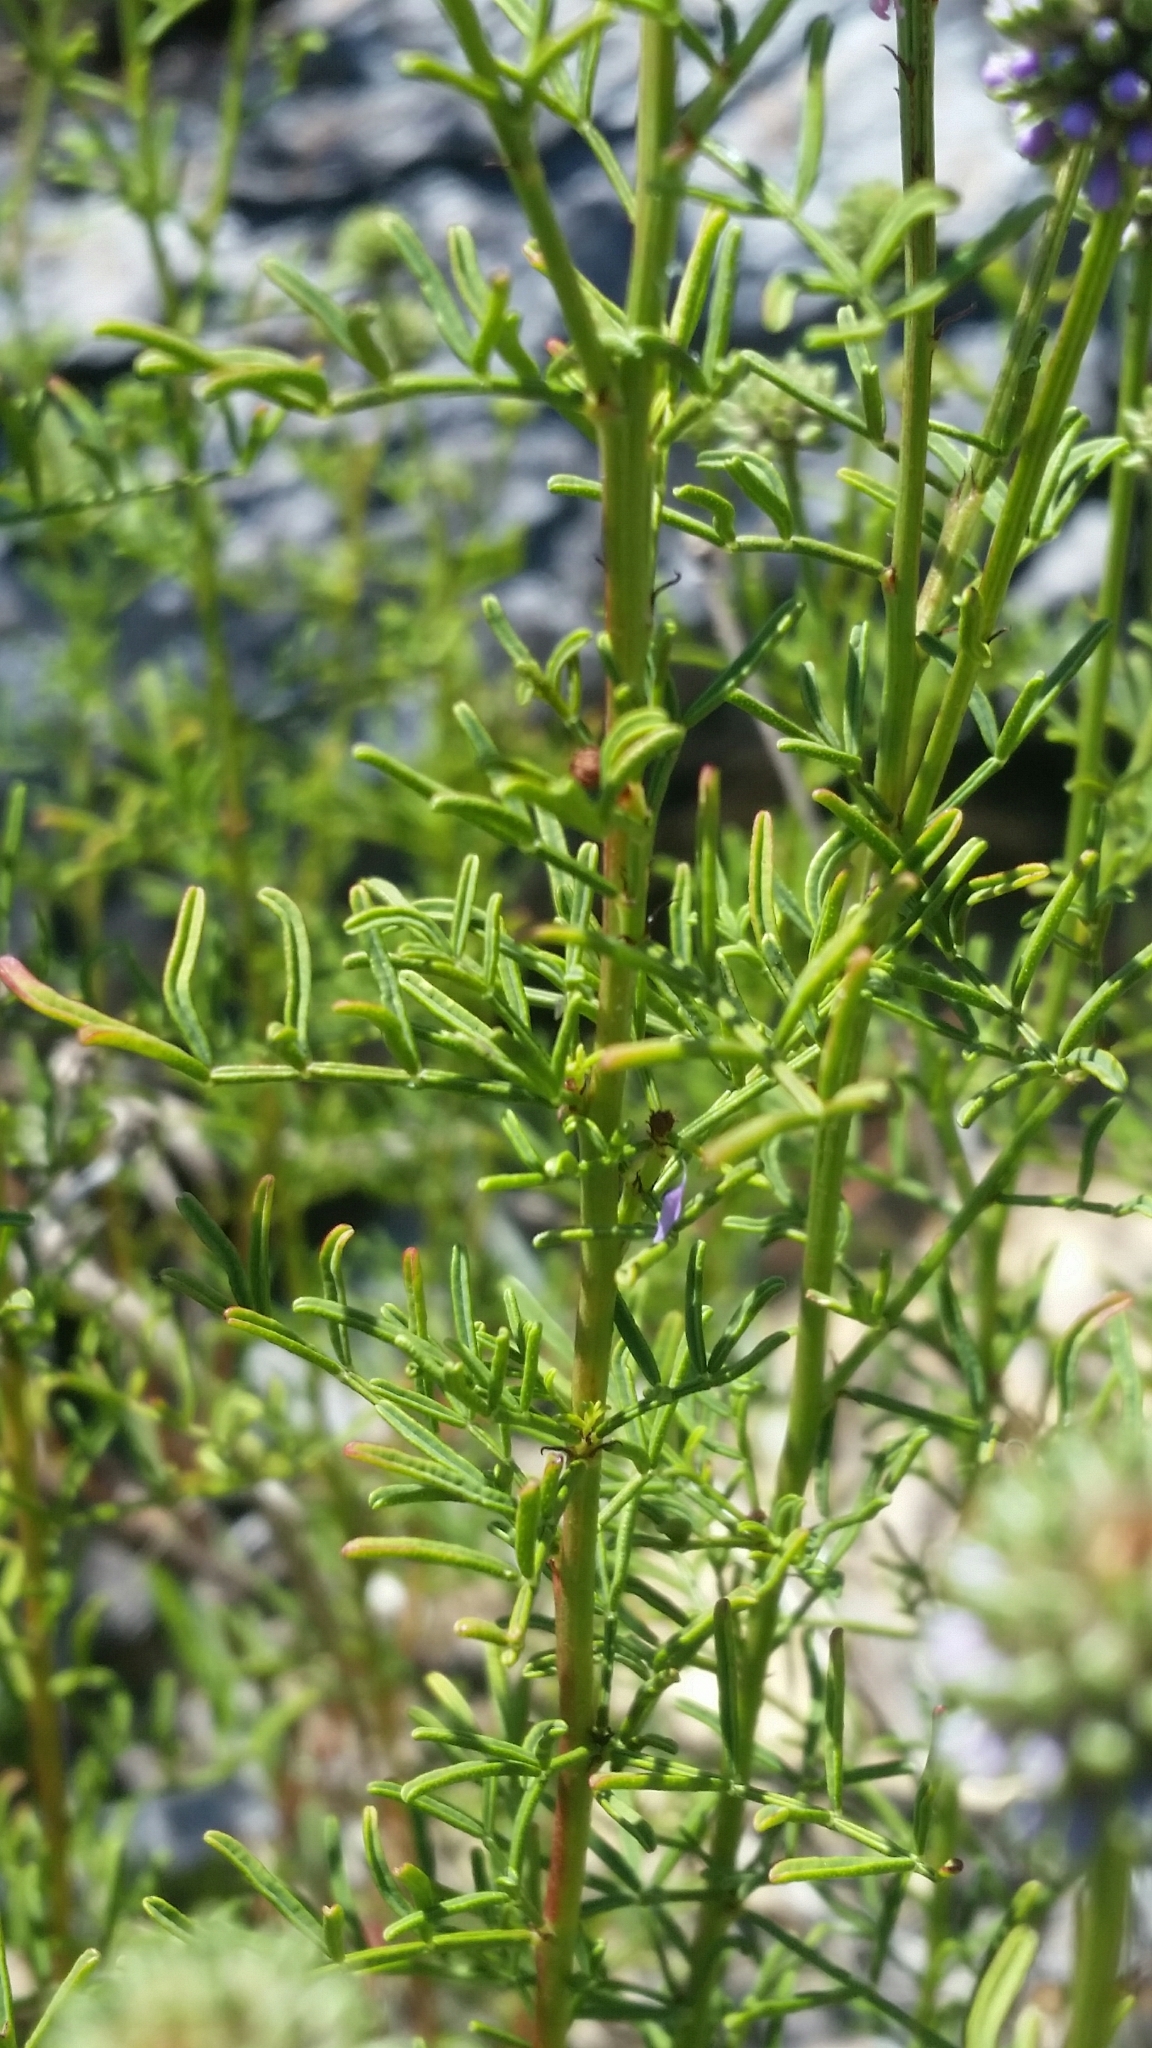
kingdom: Plantae
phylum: Tracheophyta
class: Magnoliopsida
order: Fabales
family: Fabaceae
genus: Dalea
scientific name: Dalea feayi
